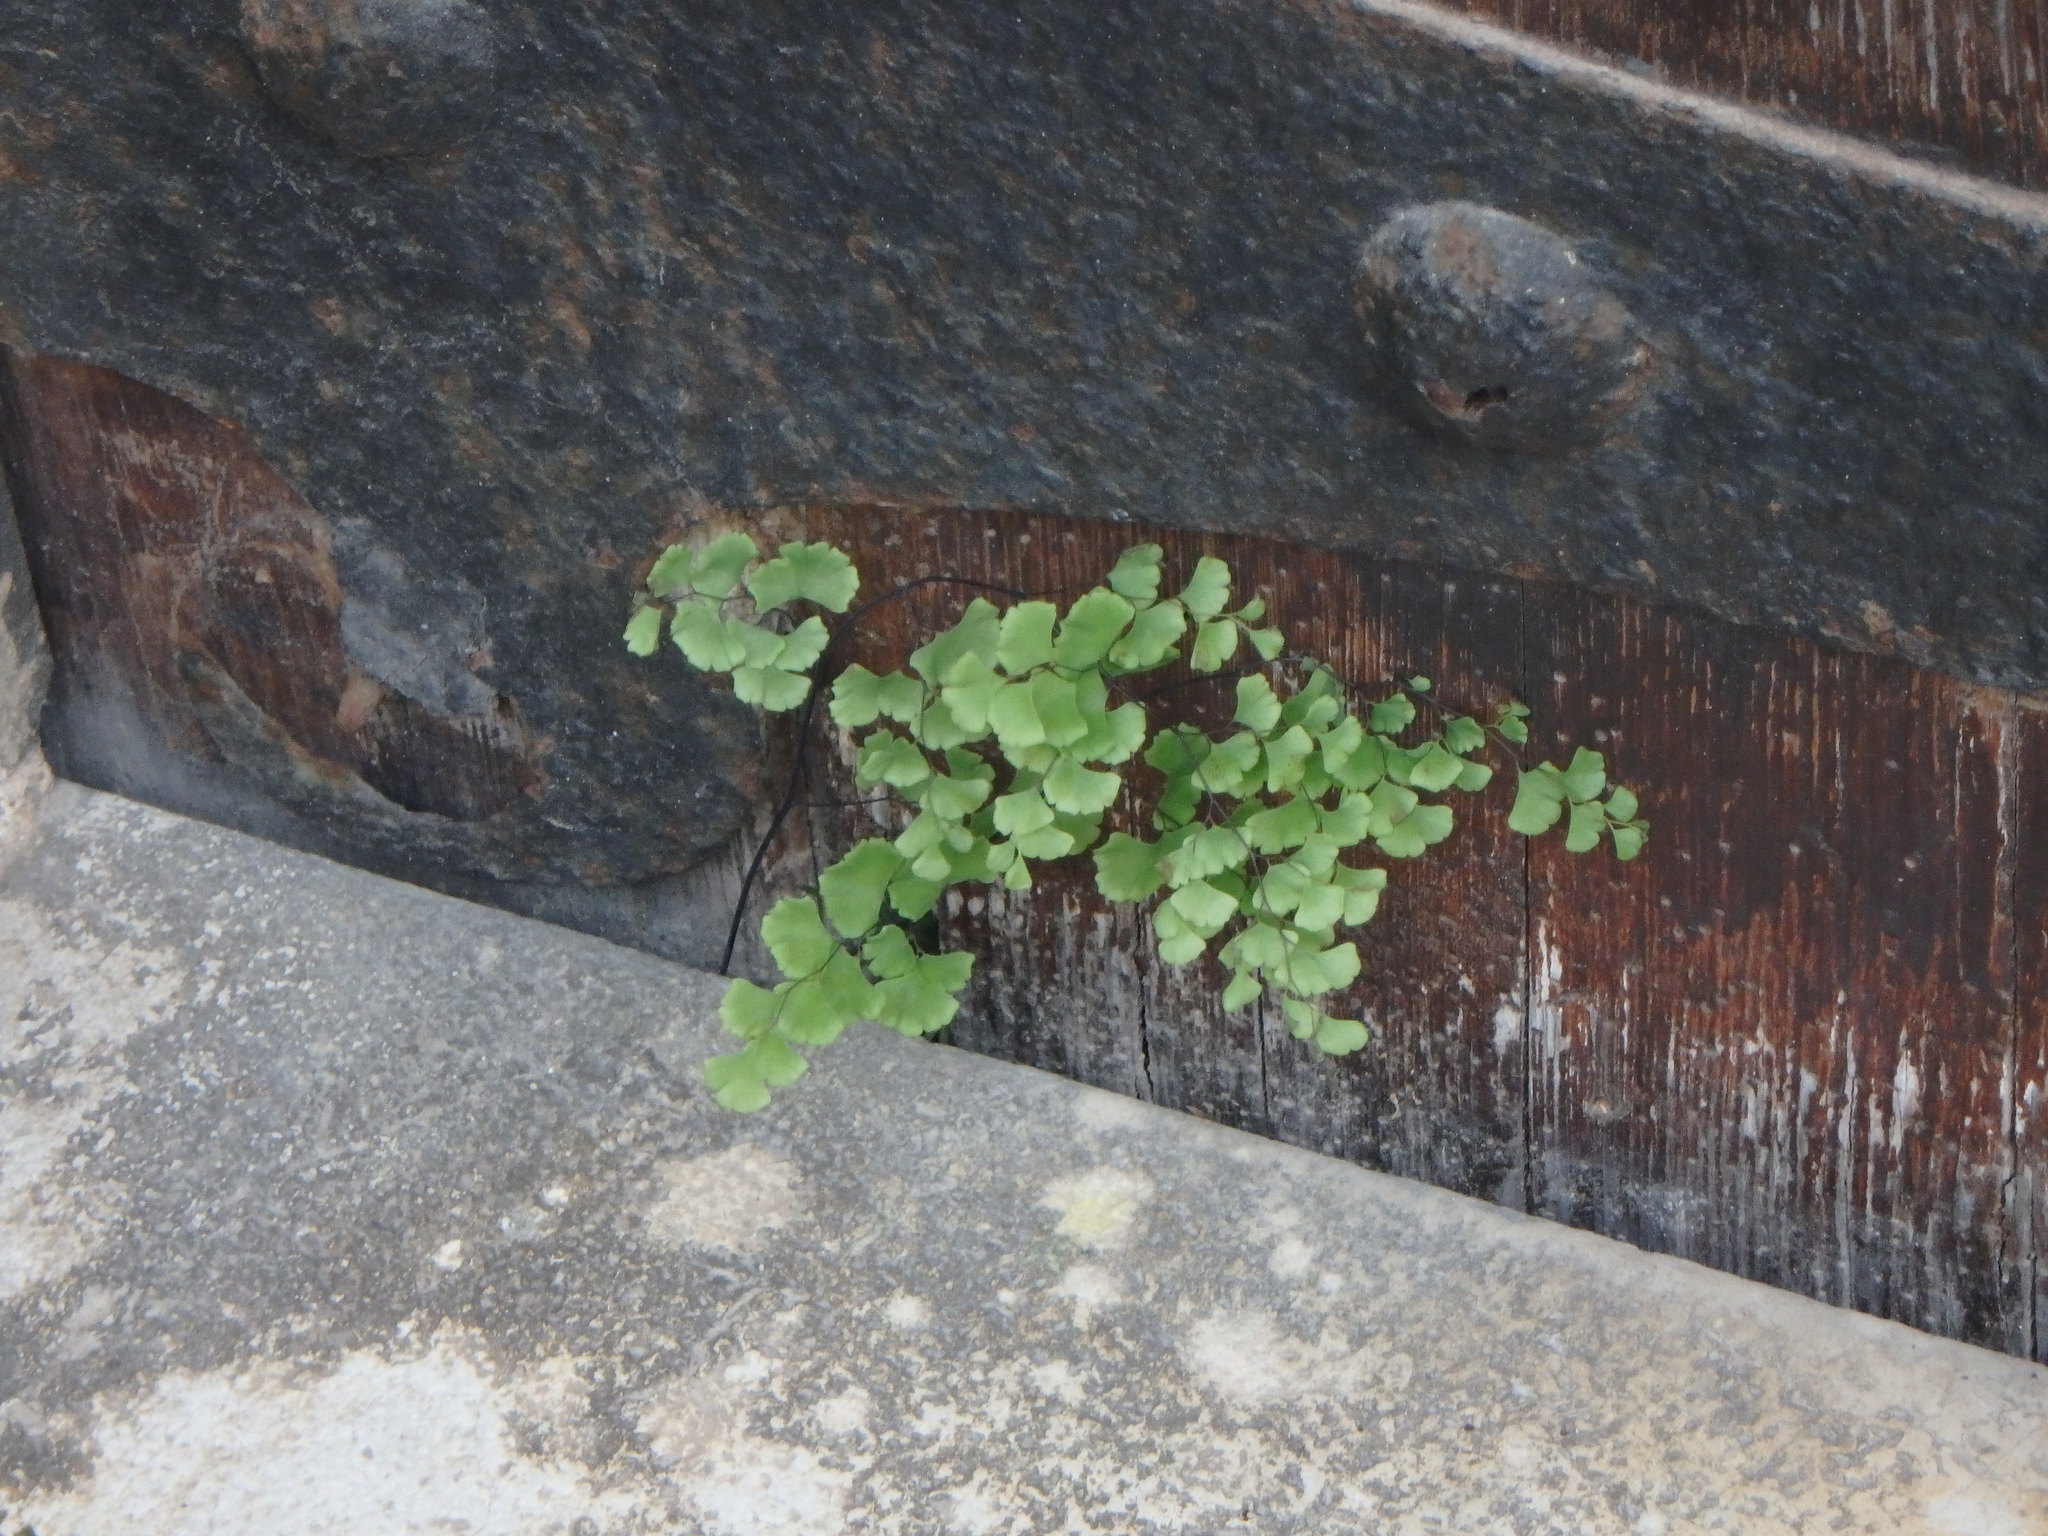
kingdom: Plantae
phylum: Tracheophyta
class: Polypodiopsida
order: Polypodiales
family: Pteridaceae
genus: Adiantum
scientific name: Adiantum capillus-veneris
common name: Maidenhair fern
